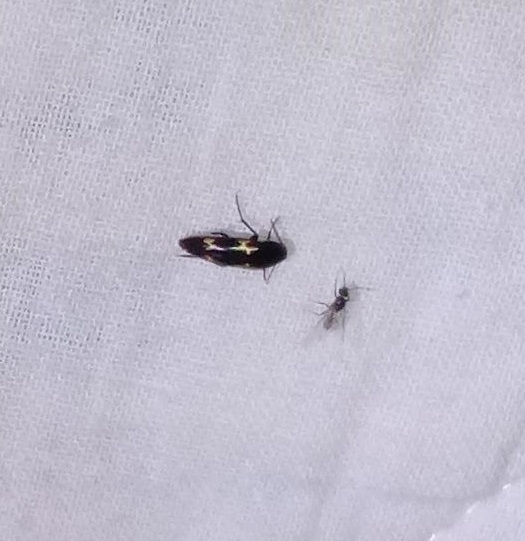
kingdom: Animalia
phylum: Arthropoda
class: Insecta
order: Coleoptera
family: Melandryidae
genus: Dircaea
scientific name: Dircaea liturata
